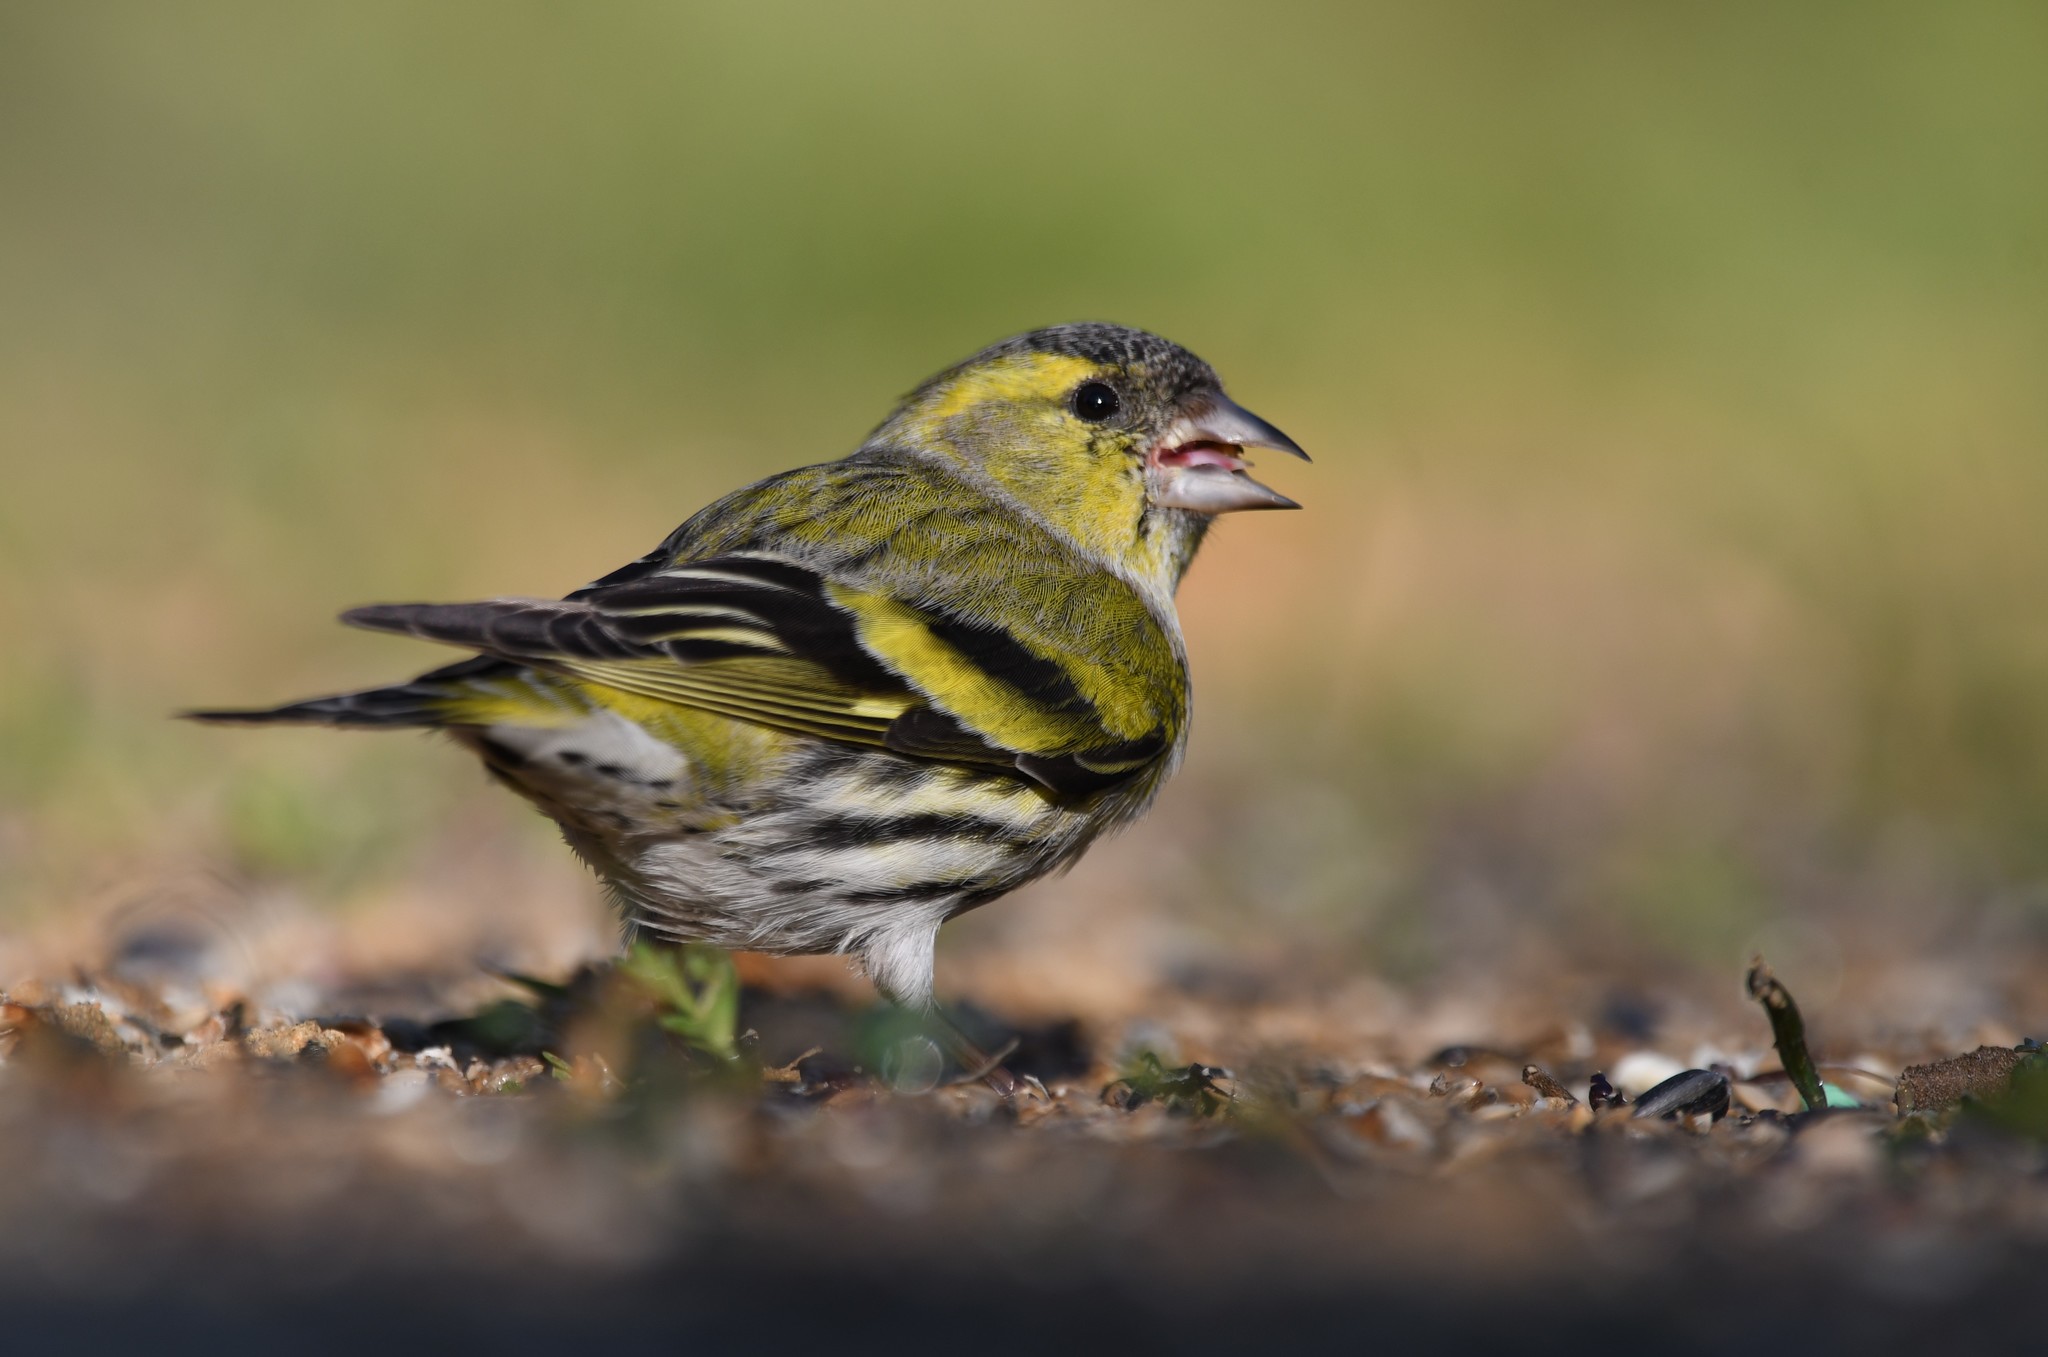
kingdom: Animalia
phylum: Chordata
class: Aves
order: Passeriformes
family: Fringillidae
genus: Spinus
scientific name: Spinus spinus
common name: Eurasian siskin
